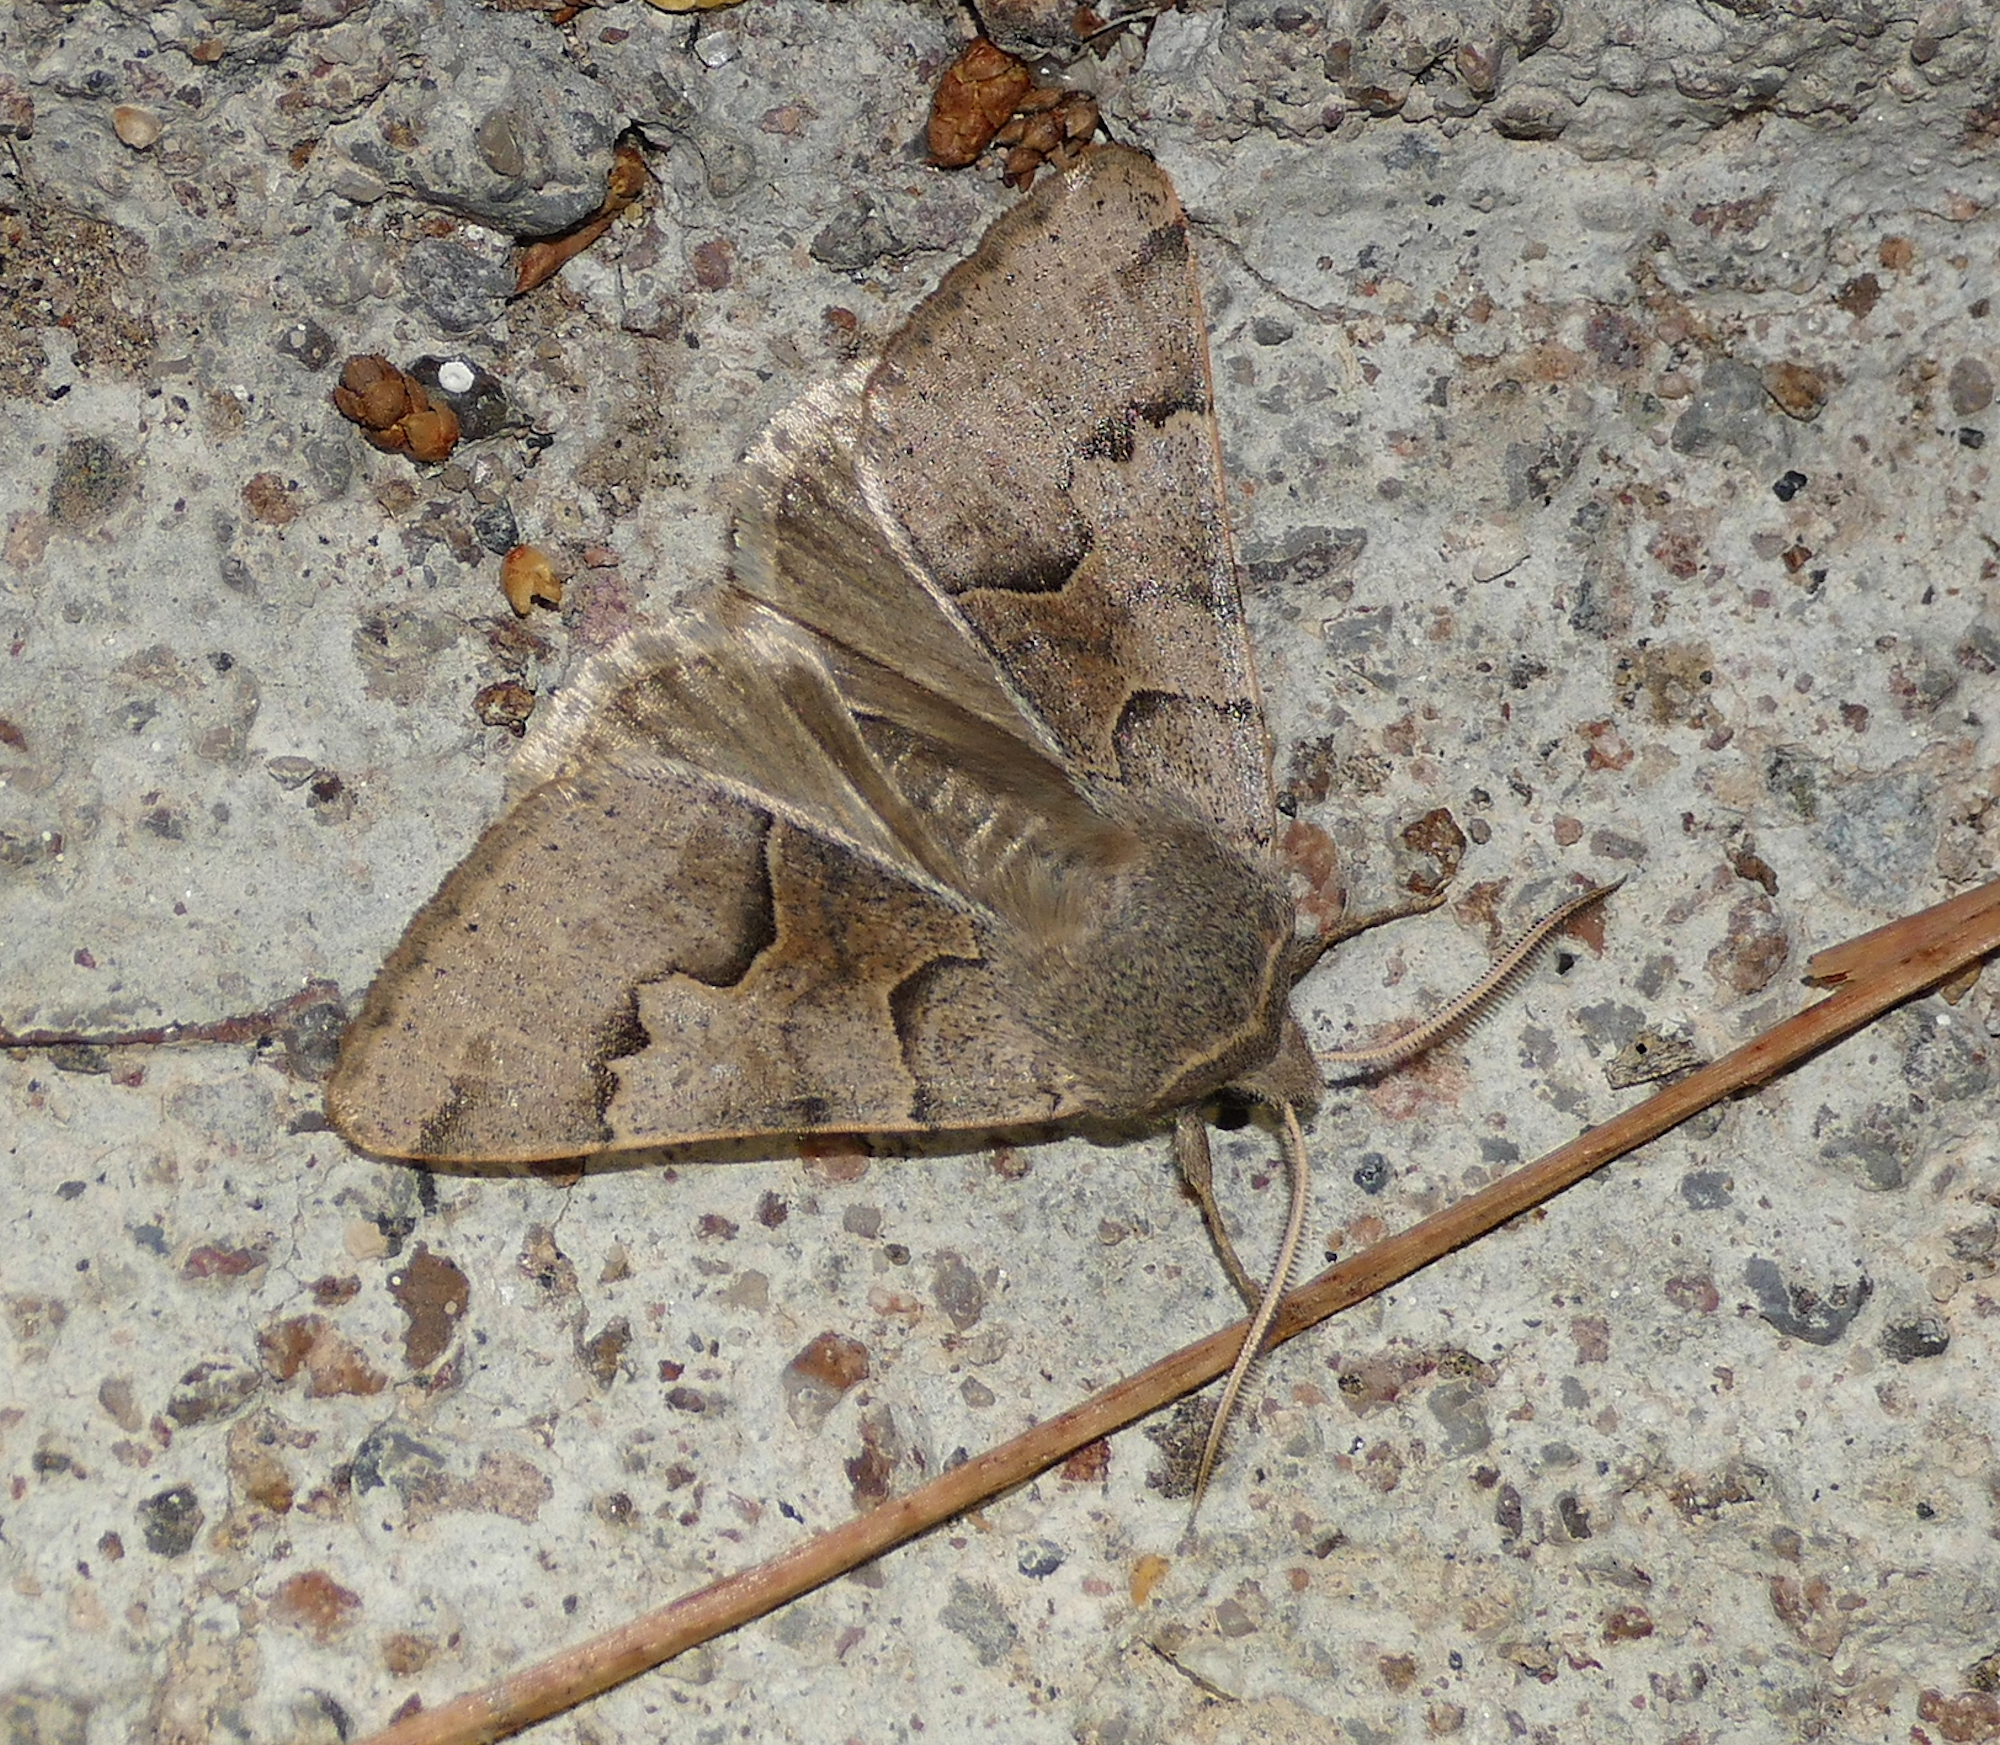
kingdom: Animalia
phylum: Arthropoda
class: Insecta
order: Lepidoptera
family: Erebidae
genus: Ulosyneda
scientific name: Ulosyneda valens
